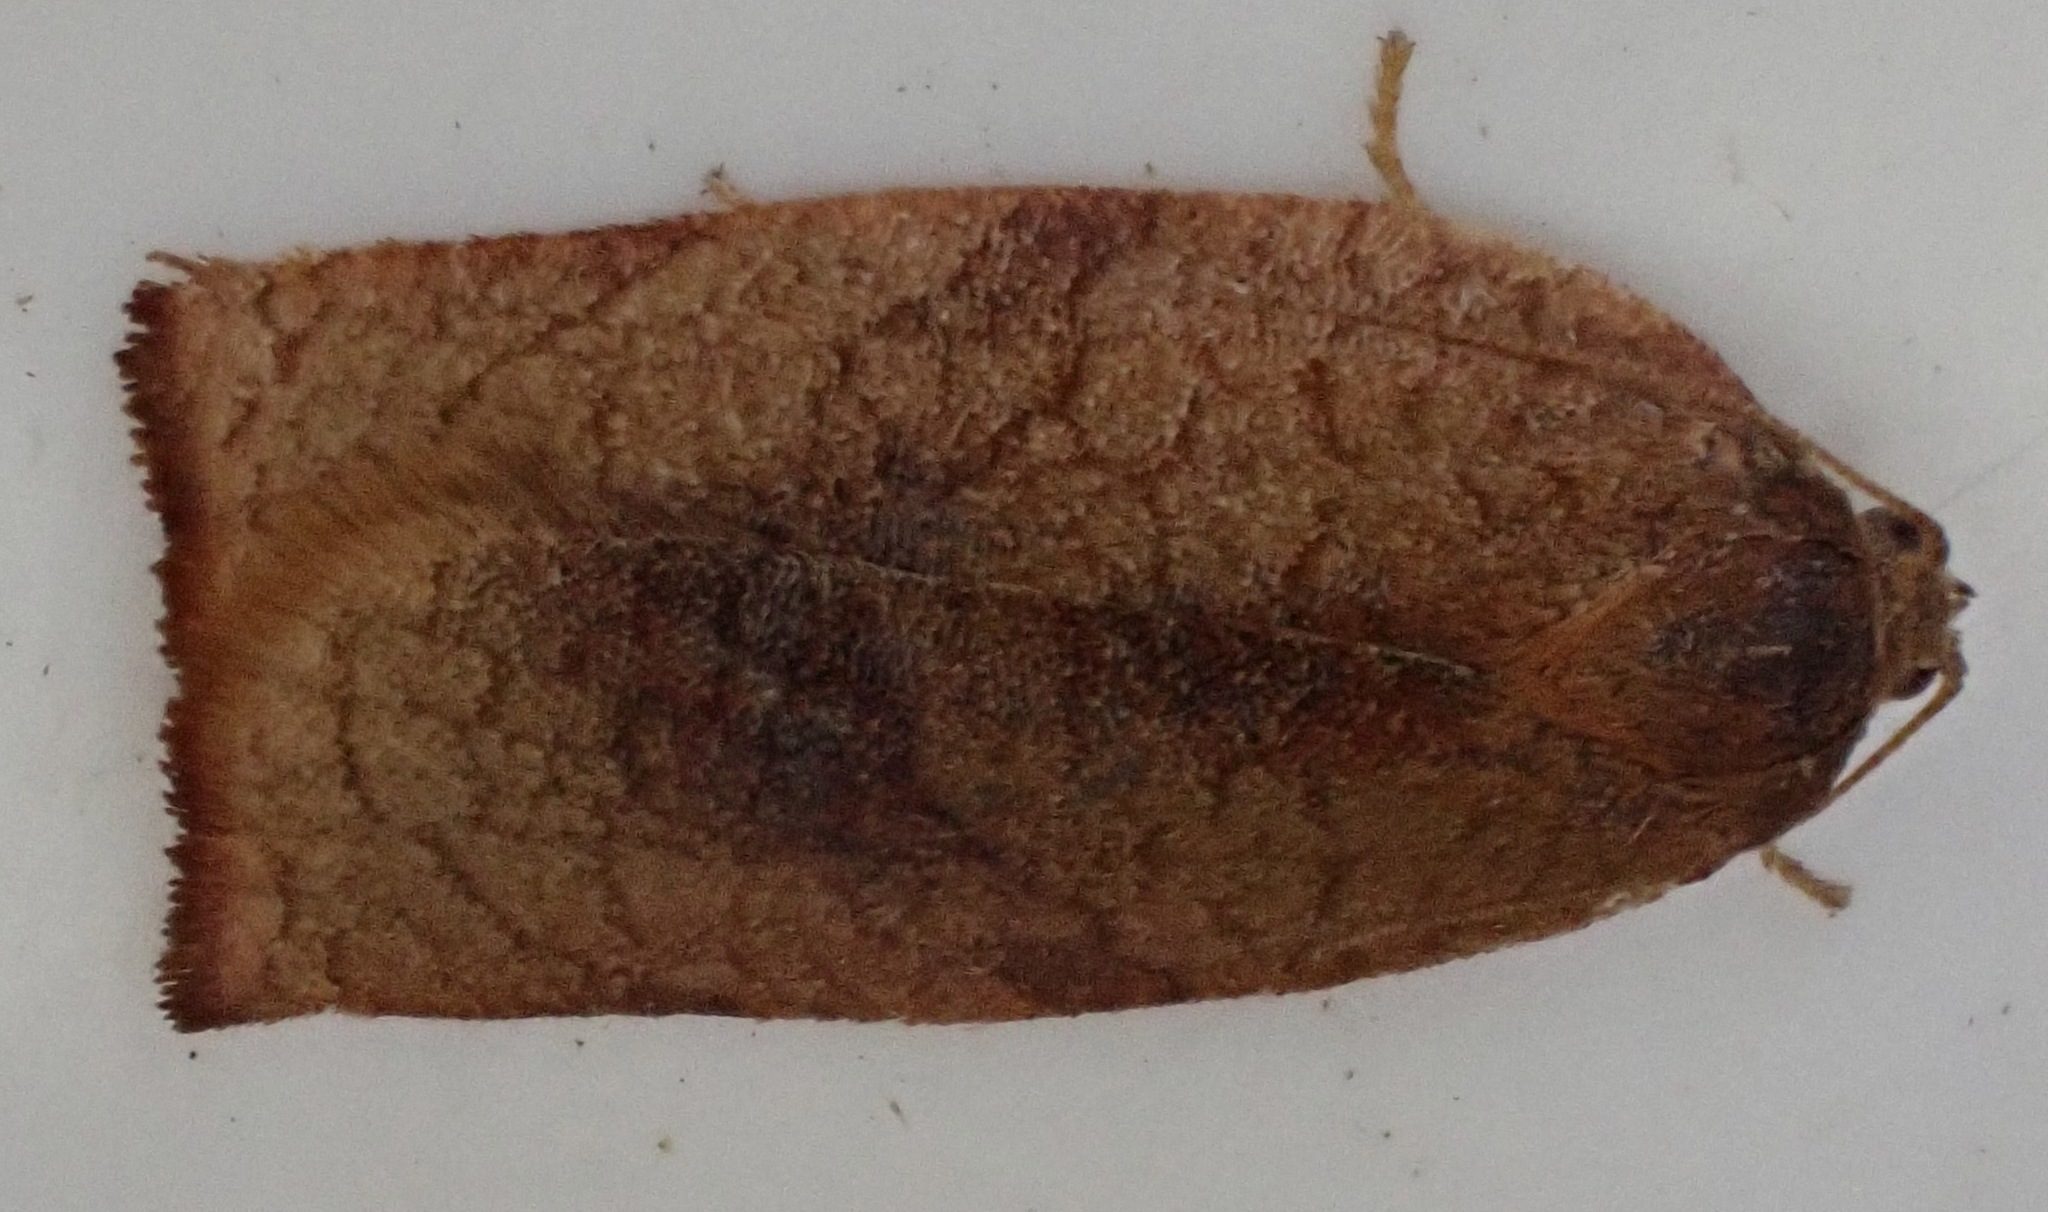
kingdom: Animalia
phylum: Arthropoda
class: Insecta
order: Lepidoptera
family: Tortricidae
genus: Cacoecimorpha
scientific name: Cacoecimorpha pronubana
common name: Carnation tortrix
